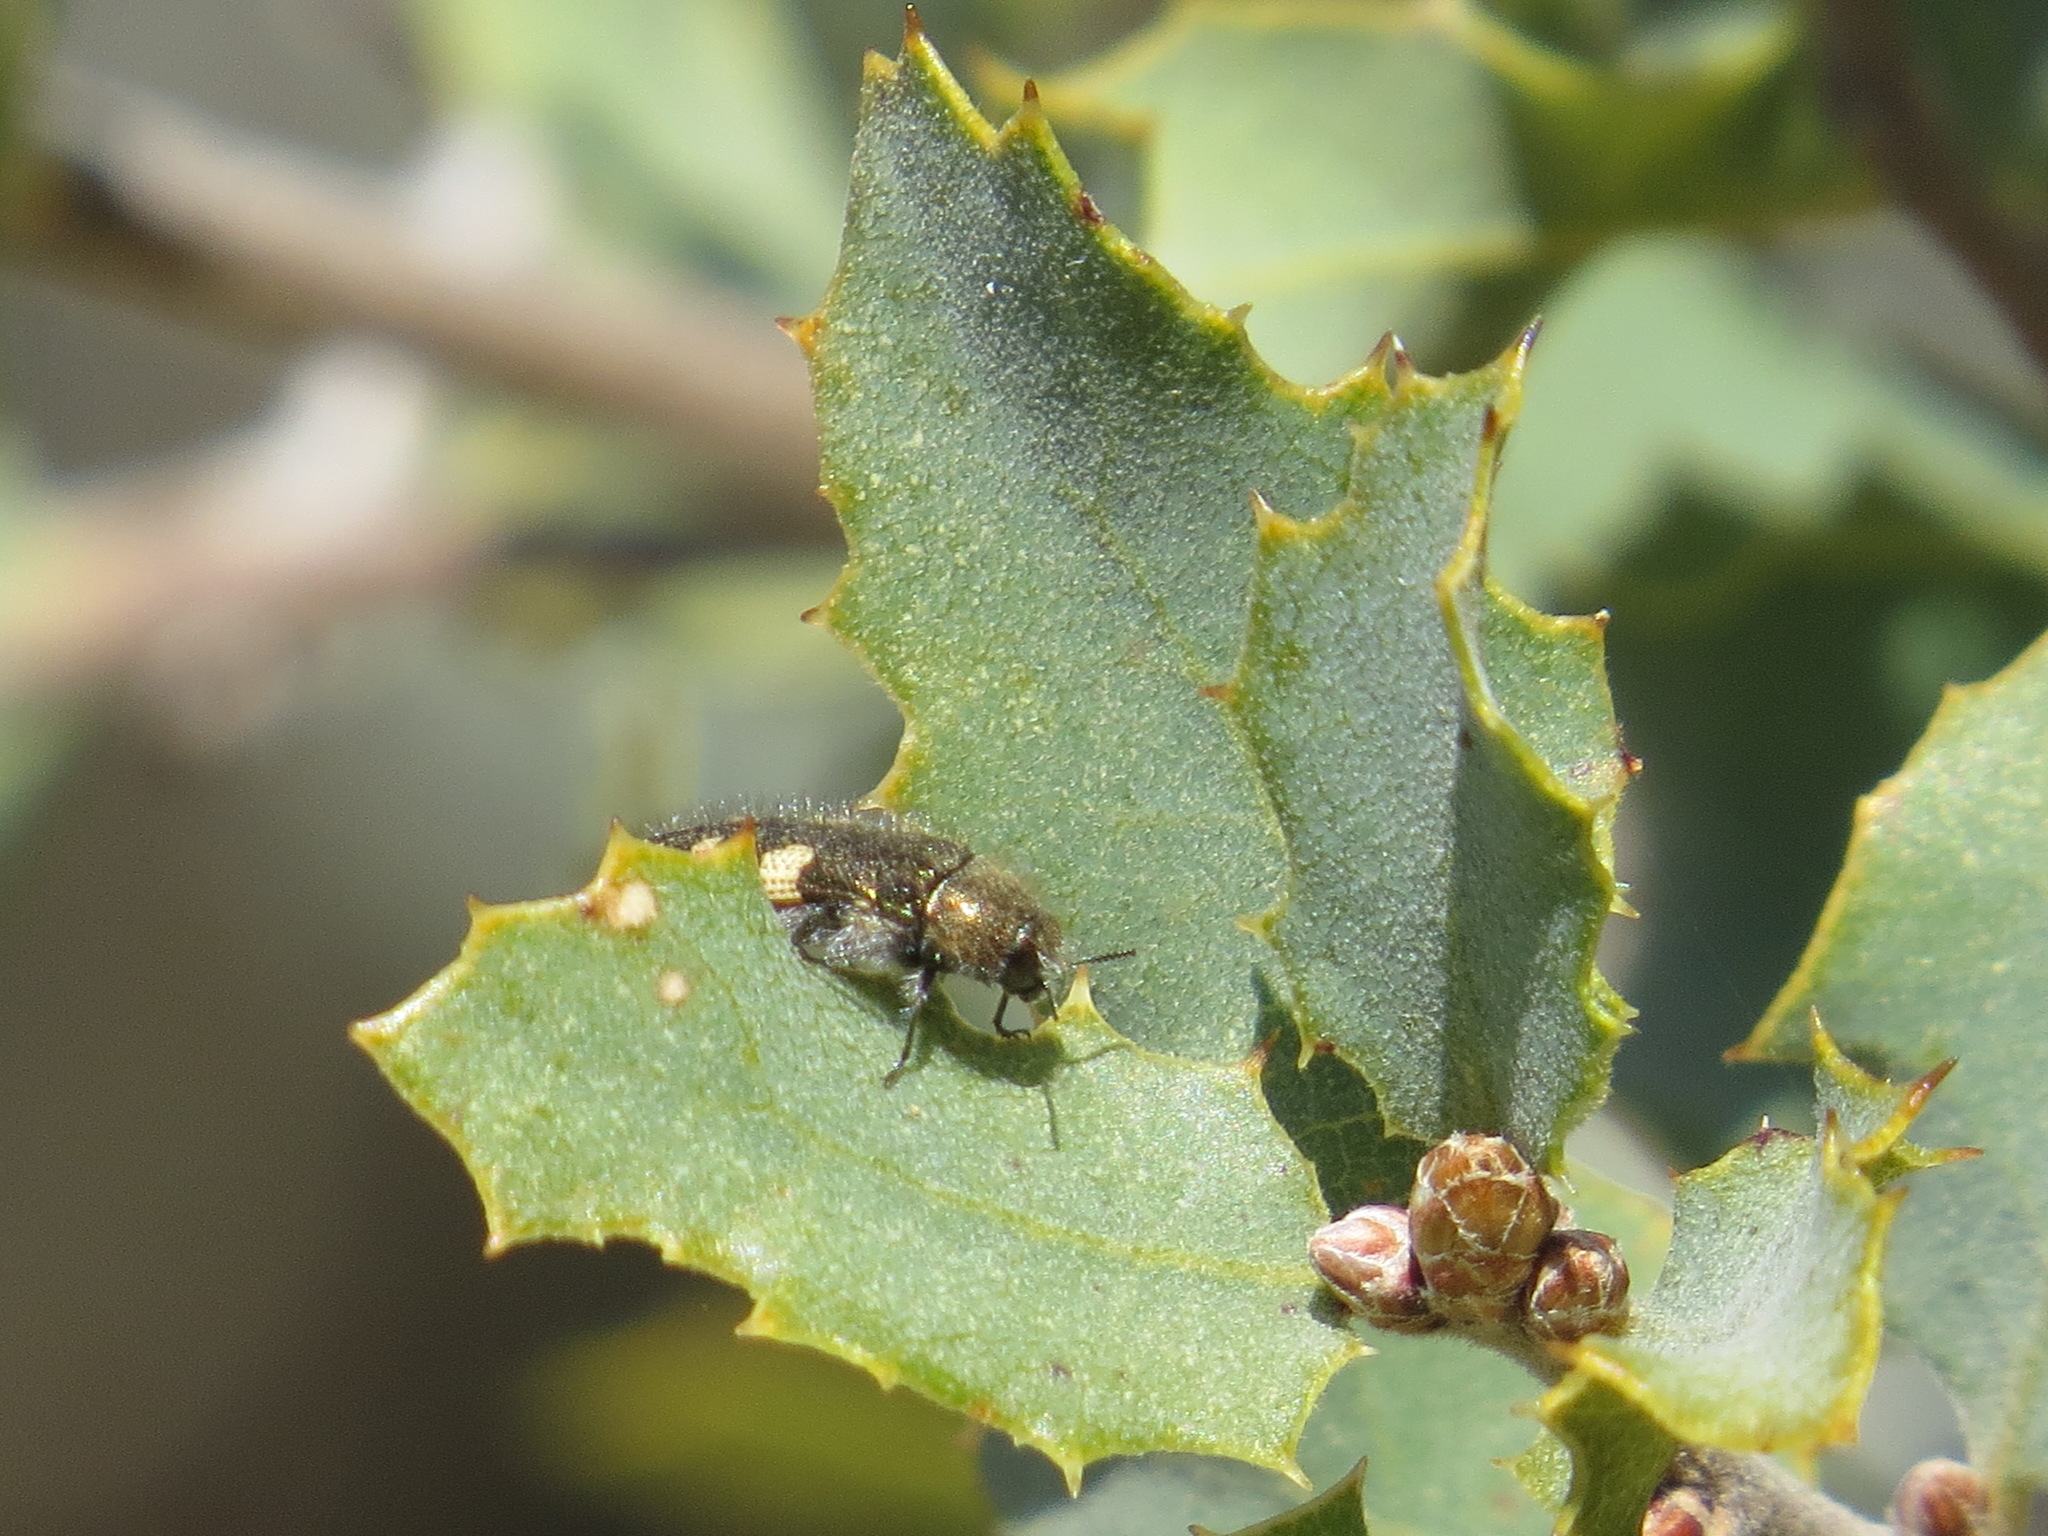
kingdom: Animalia
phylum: Arthropoda
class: Insecta
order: Coleoptera
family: Buprestidae
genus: Acmaeodera
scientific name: Acmaeodera coquilletti
